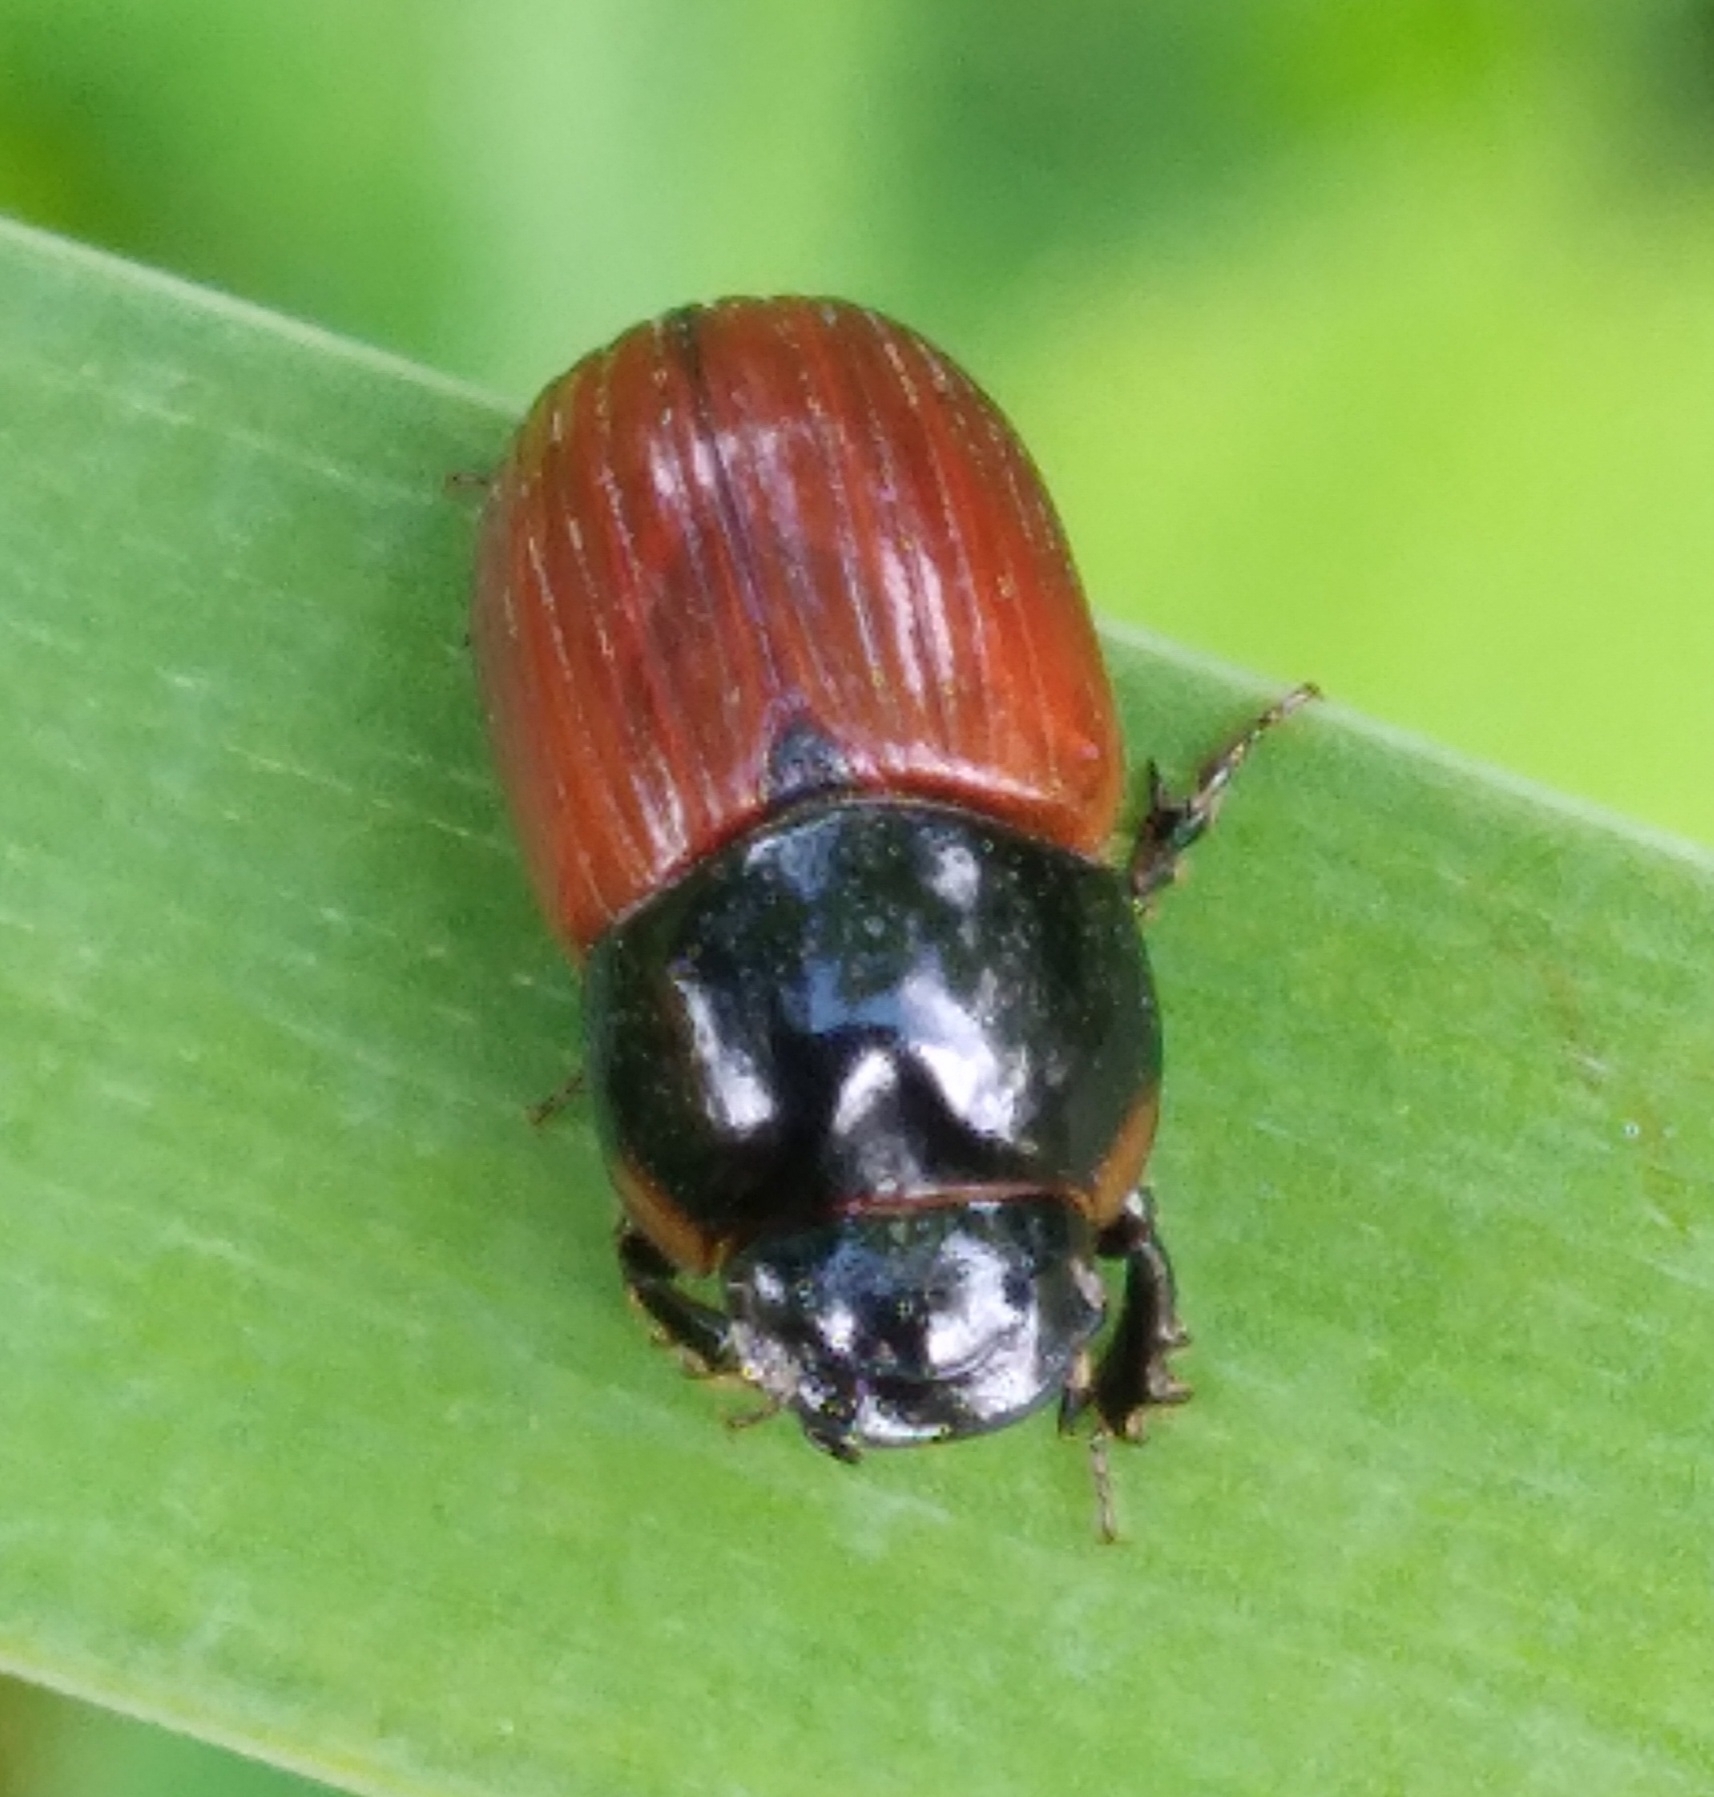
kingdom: Animalia
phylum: Arthropoda
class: Insecta
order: Coleoptera
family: Scarabaeidae
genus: Aphodius
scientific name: Aphodius pedellus
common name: Common dung beetle
